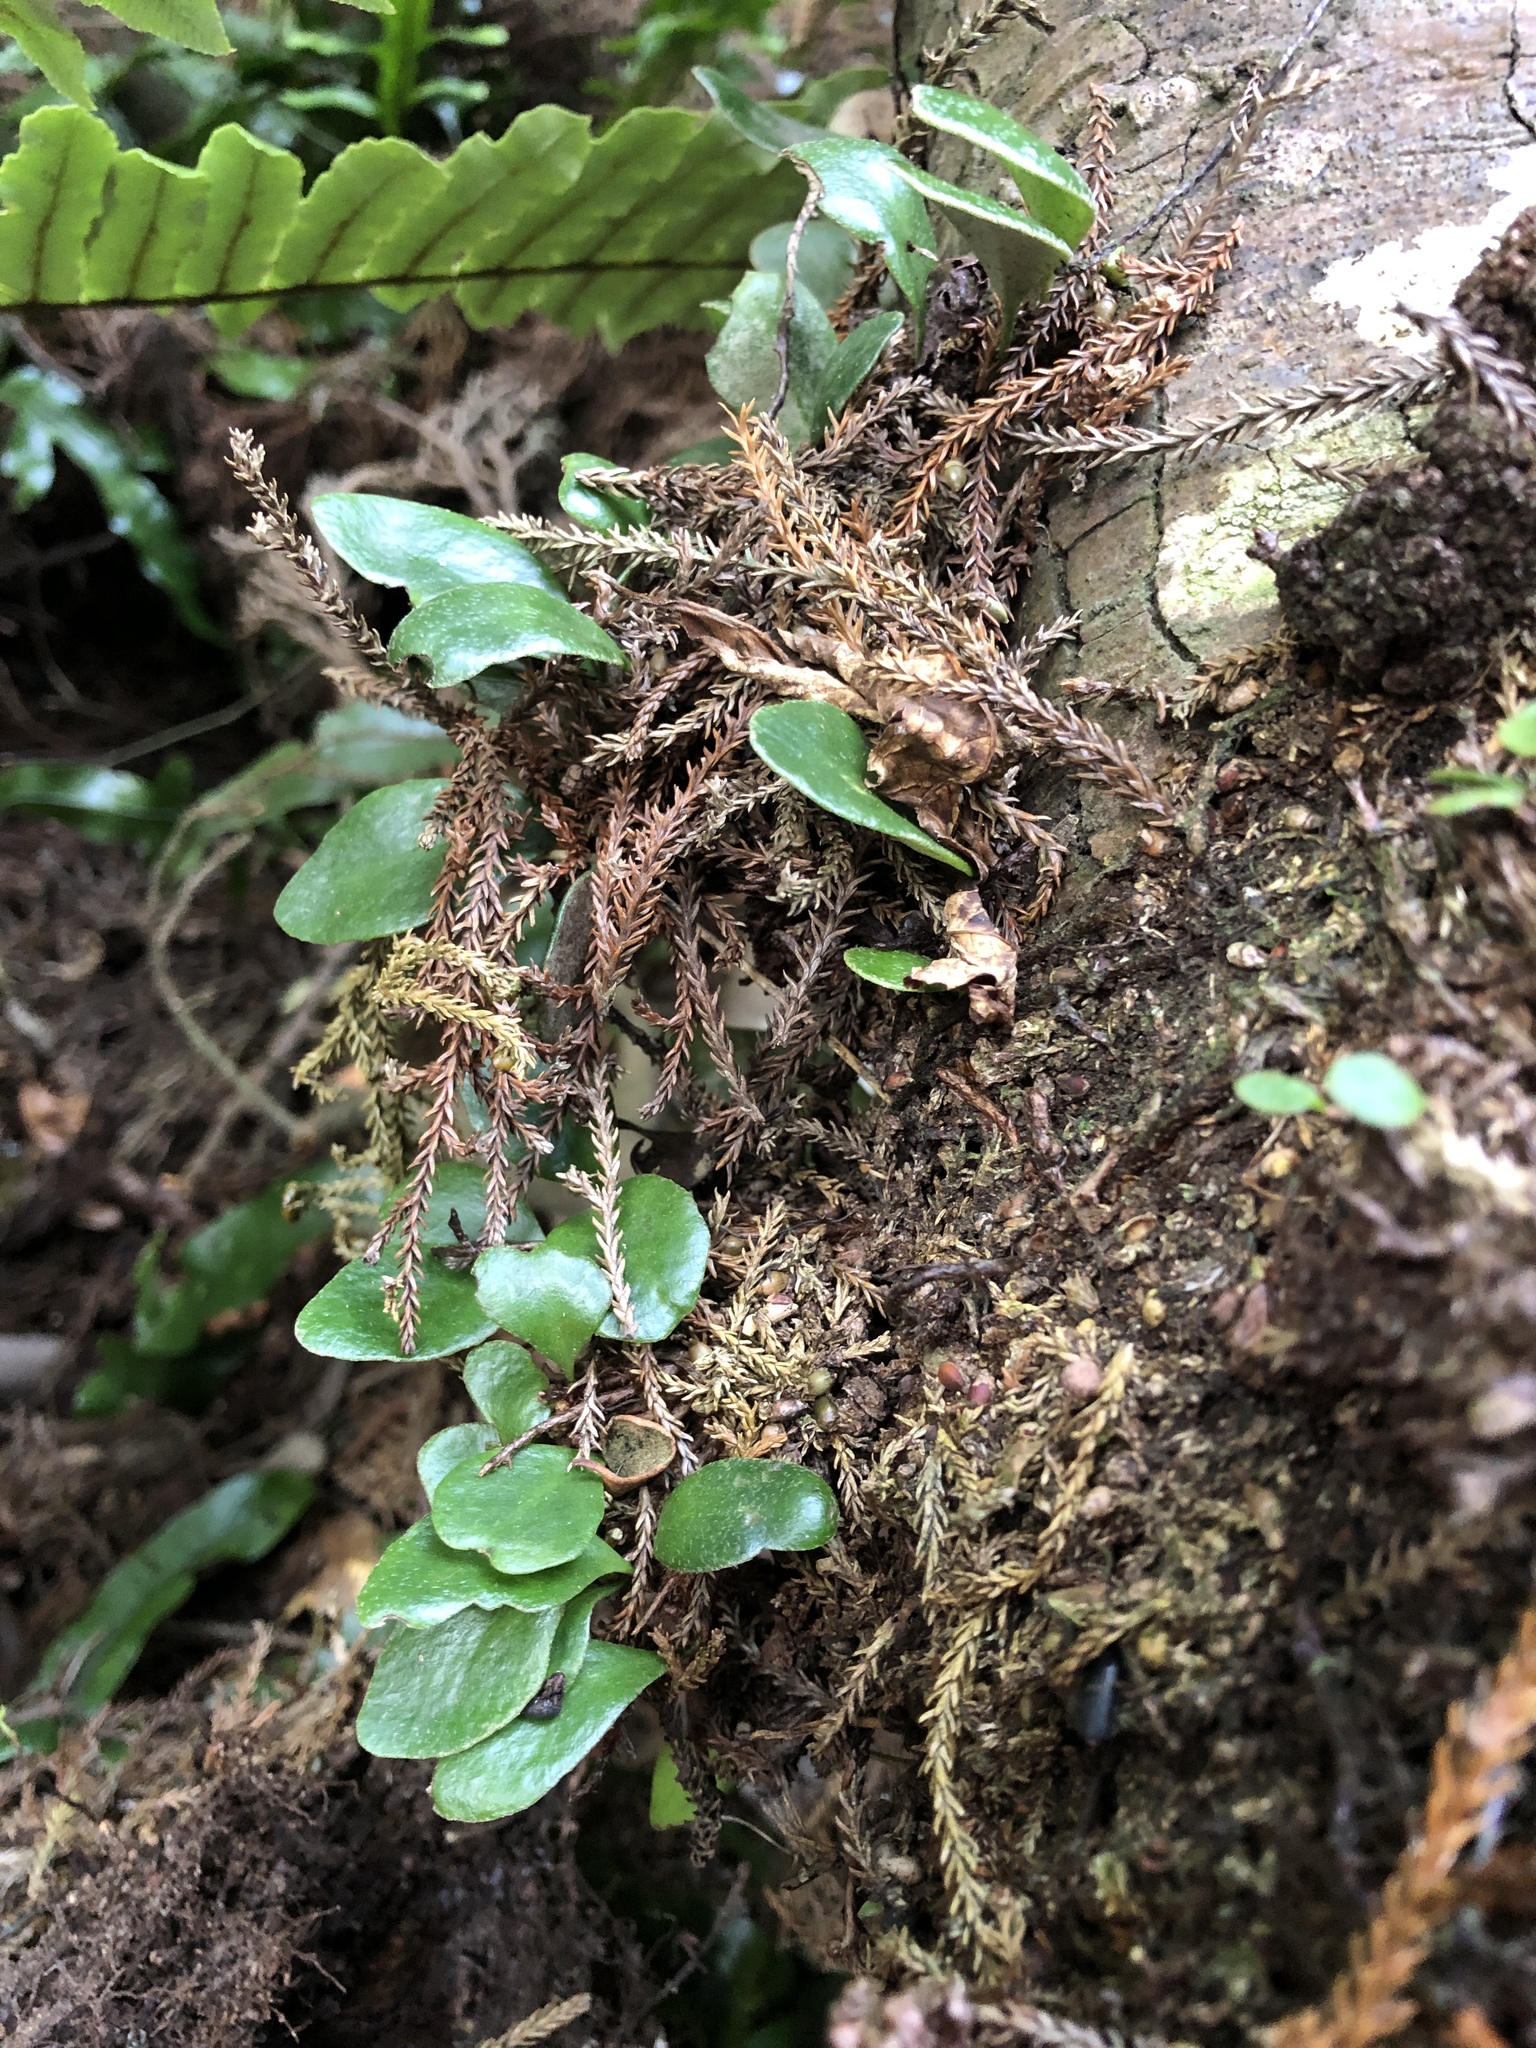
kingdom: Plantae
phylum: Tracheophyta
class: Polypodiopsida
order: Polypodiales
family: Polypodiaceae
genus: Pyrrosia
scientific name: Pyrrosia eleagnifolia
